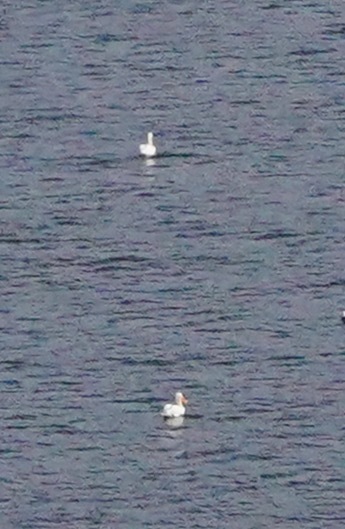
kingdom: Animalia
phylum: Chordata
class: Aves
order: Pelecaniformes
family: Pelecanidae
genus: Pelecanus
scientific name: Pelecanus erythrorhynchos
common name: American white pelican
